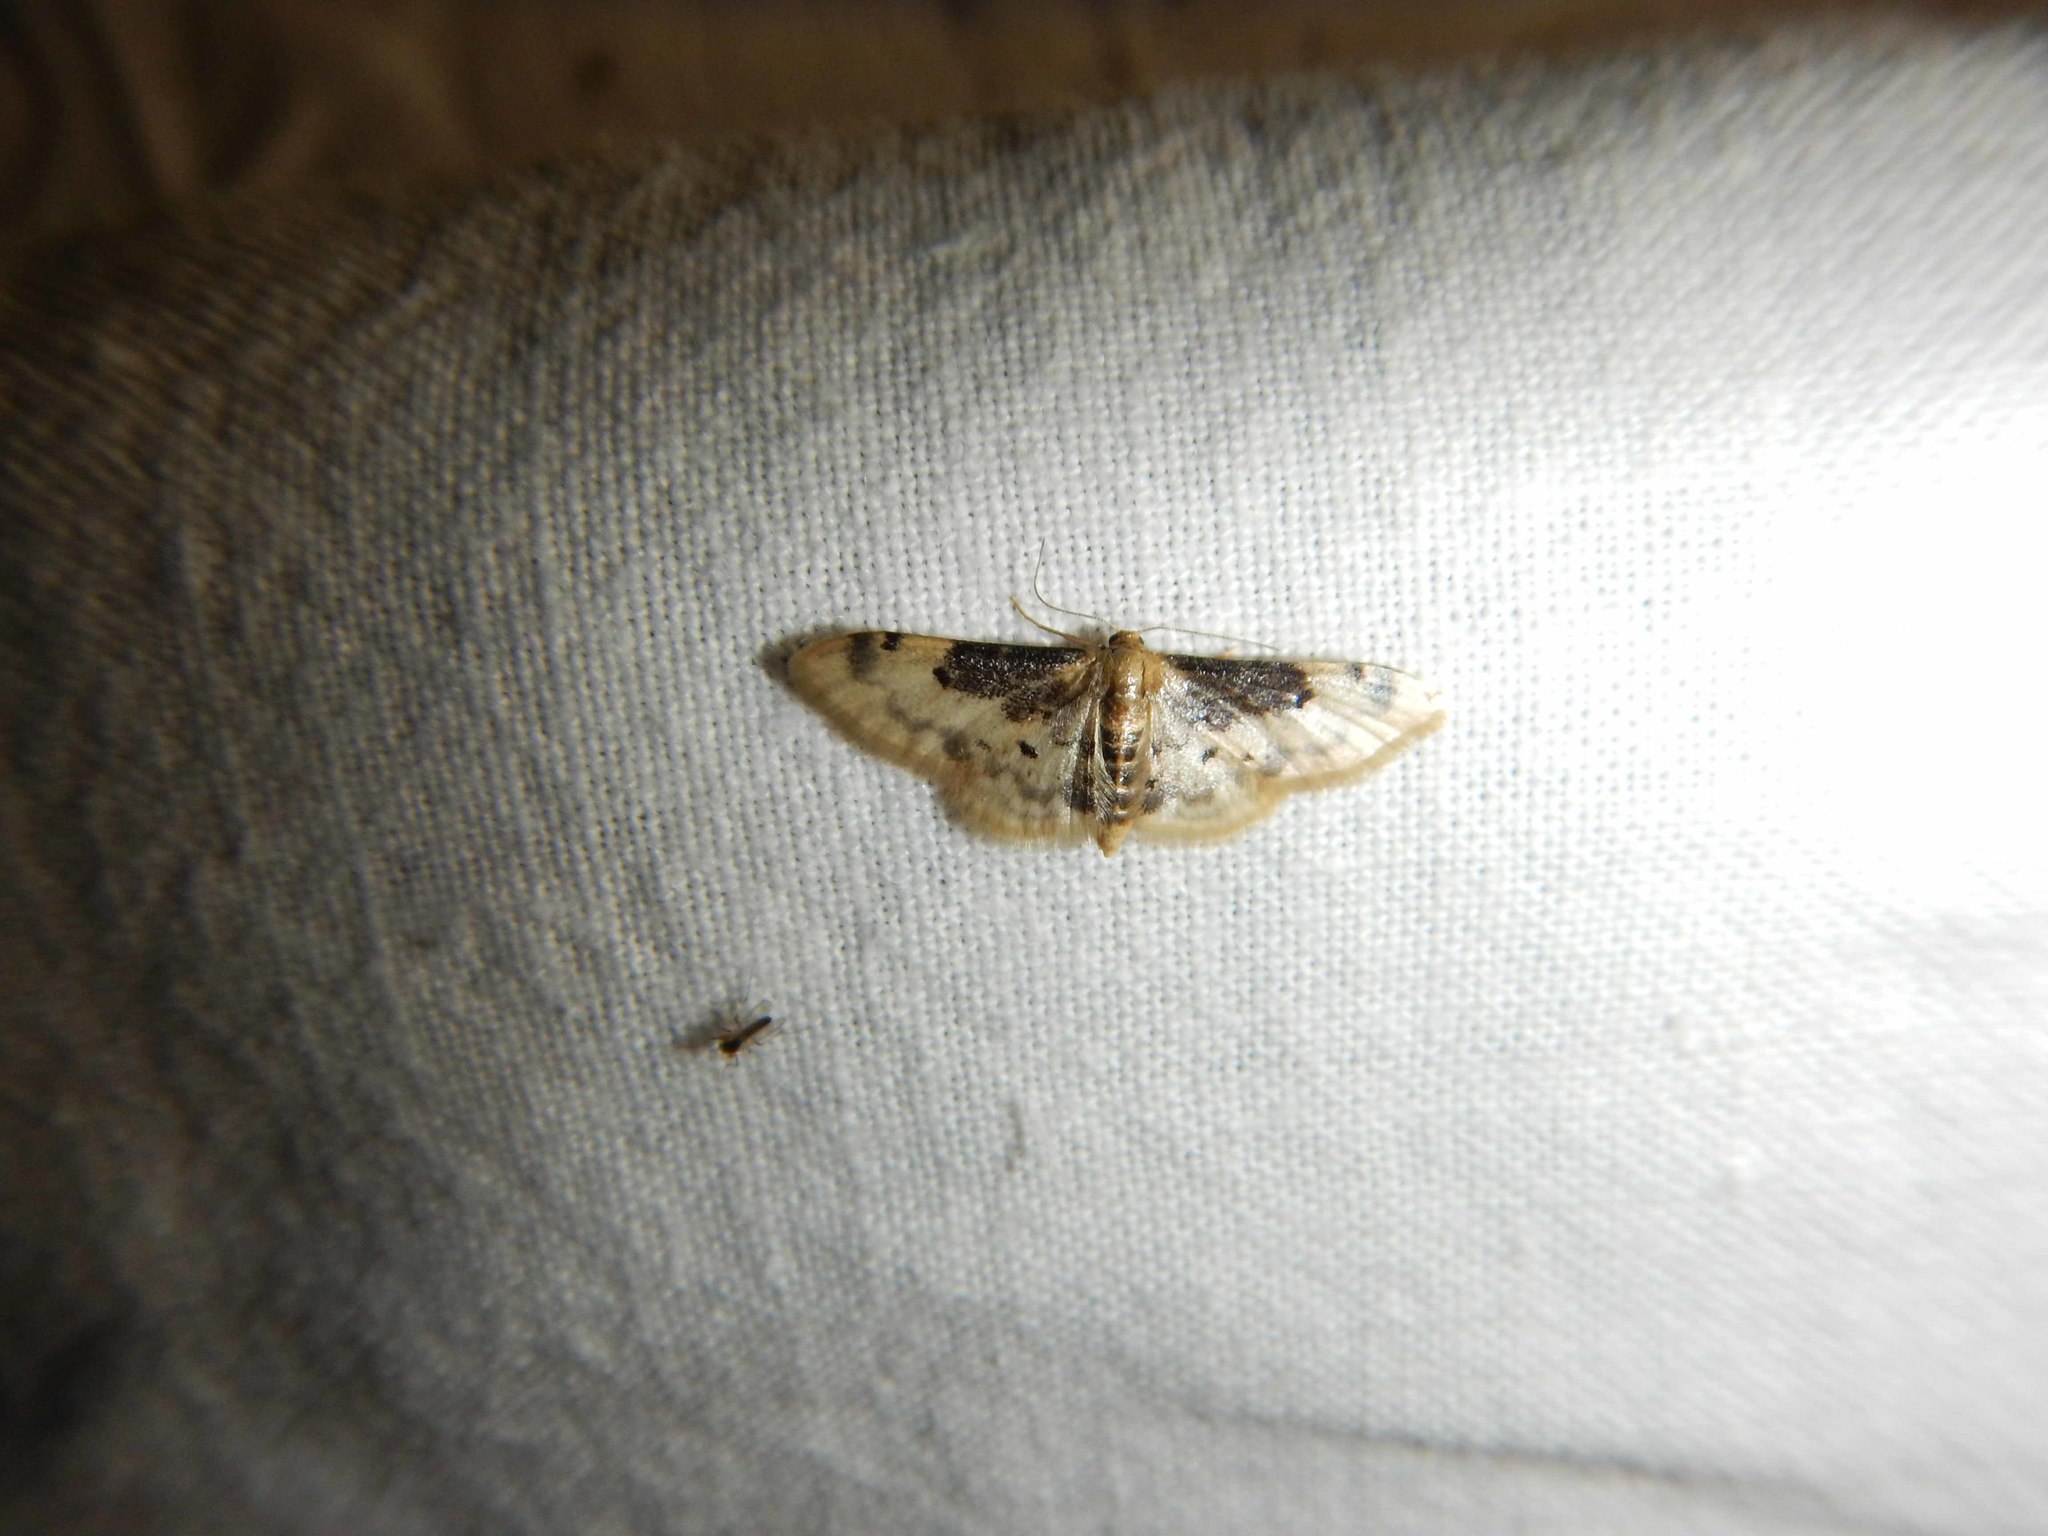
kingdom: Animalia
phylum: Arthropoda
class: Insecta
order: Lepidoptera
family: Geometridae
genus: Idaea
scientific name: Idaea filicata
